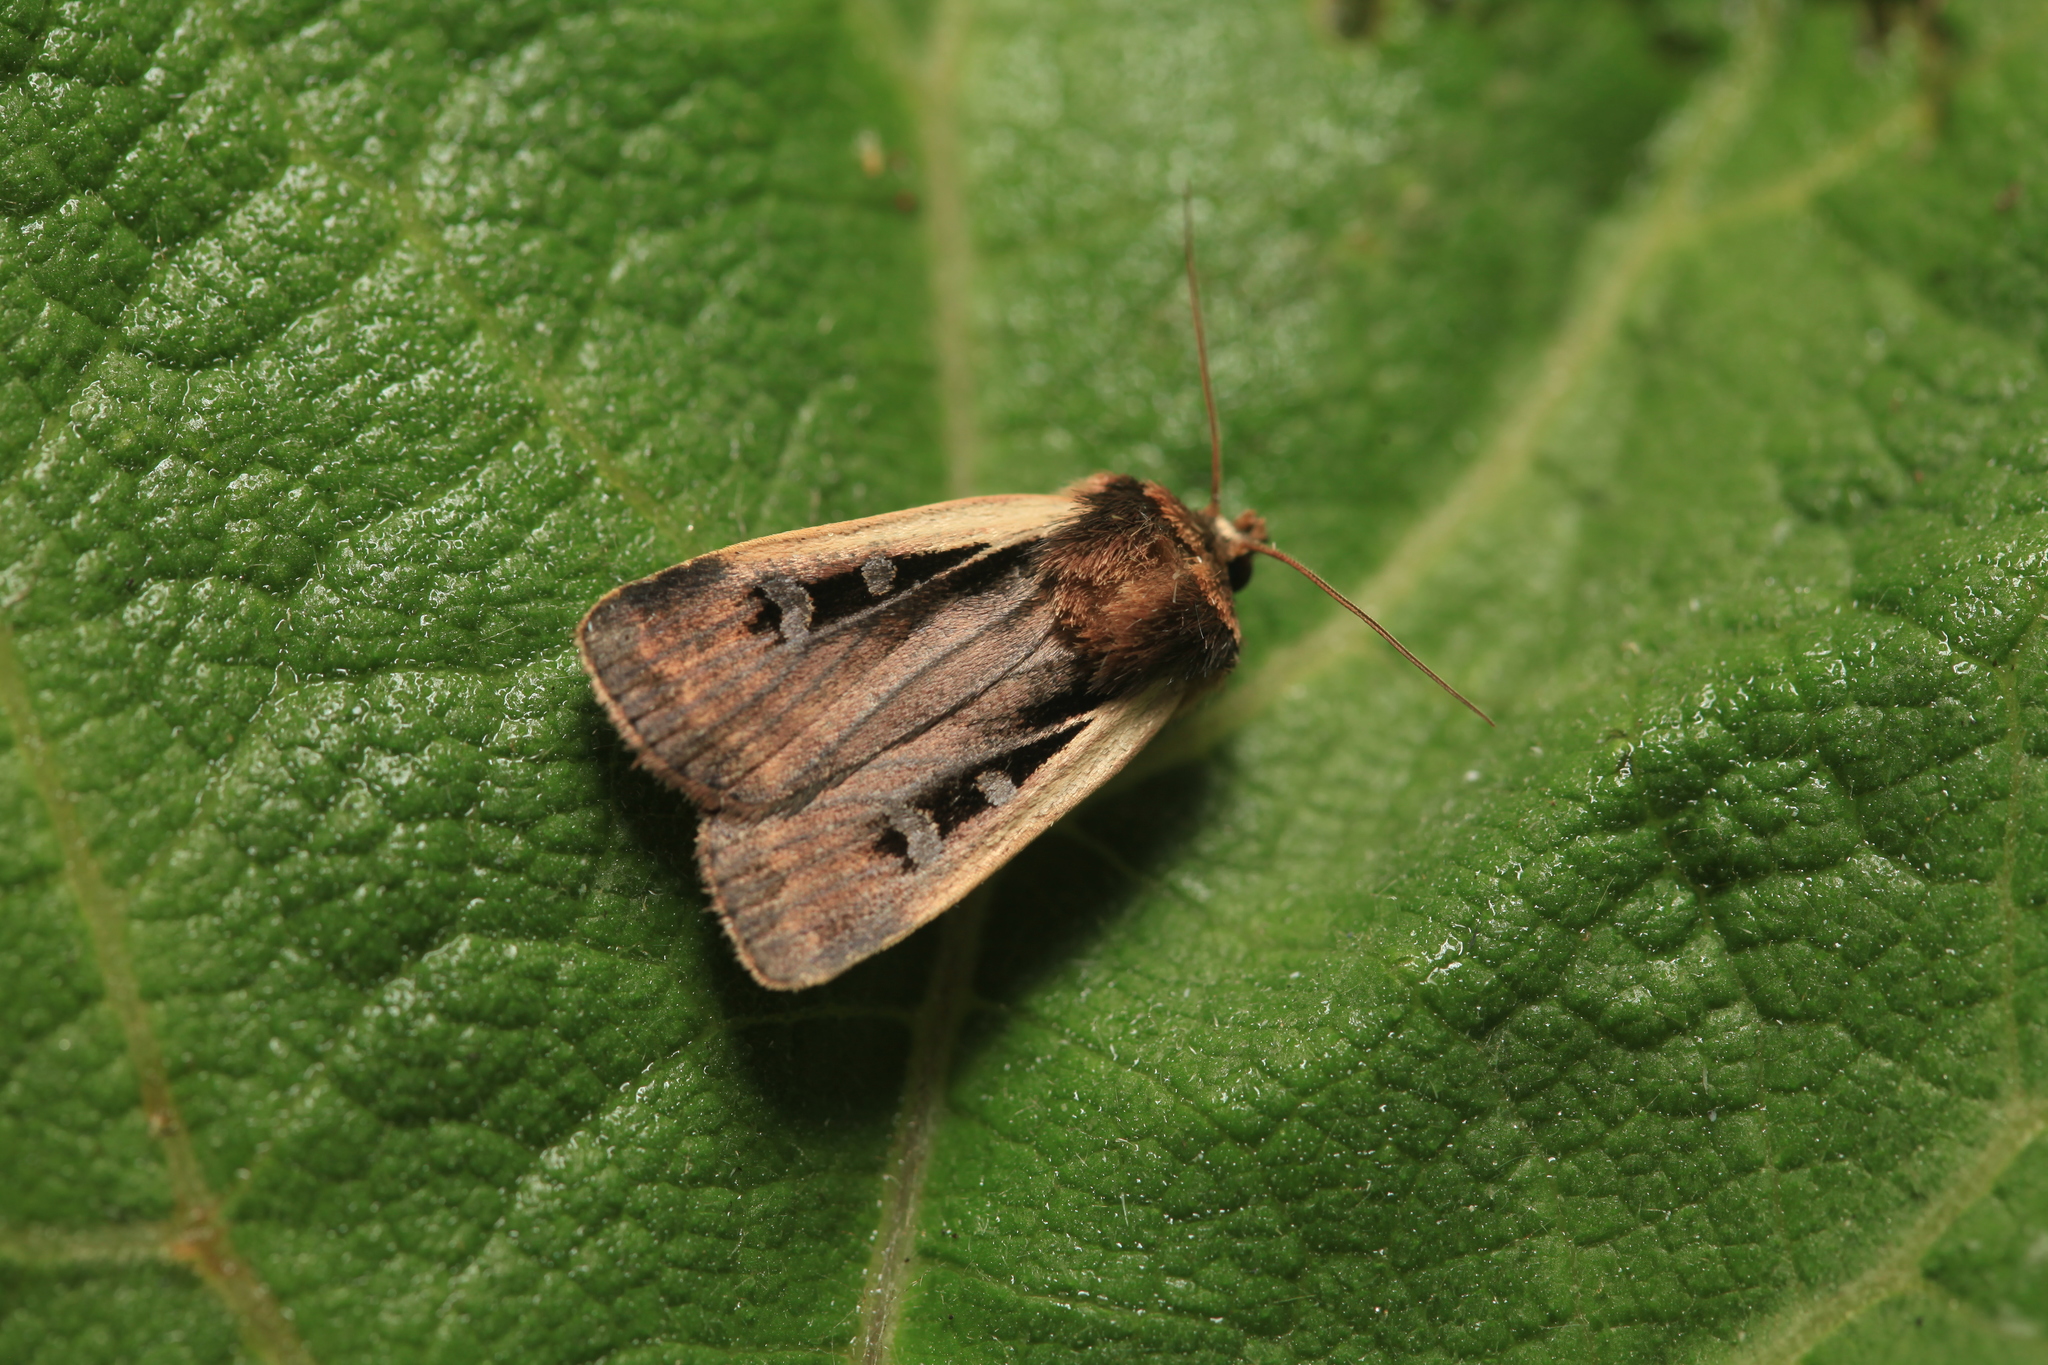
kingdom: Animalia
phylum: Arthropoda
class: Insecta
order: Lepidoptera
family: Noctuidae
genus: Ochropleura
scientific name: Ochropleura plecta
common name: Flame shoulder
